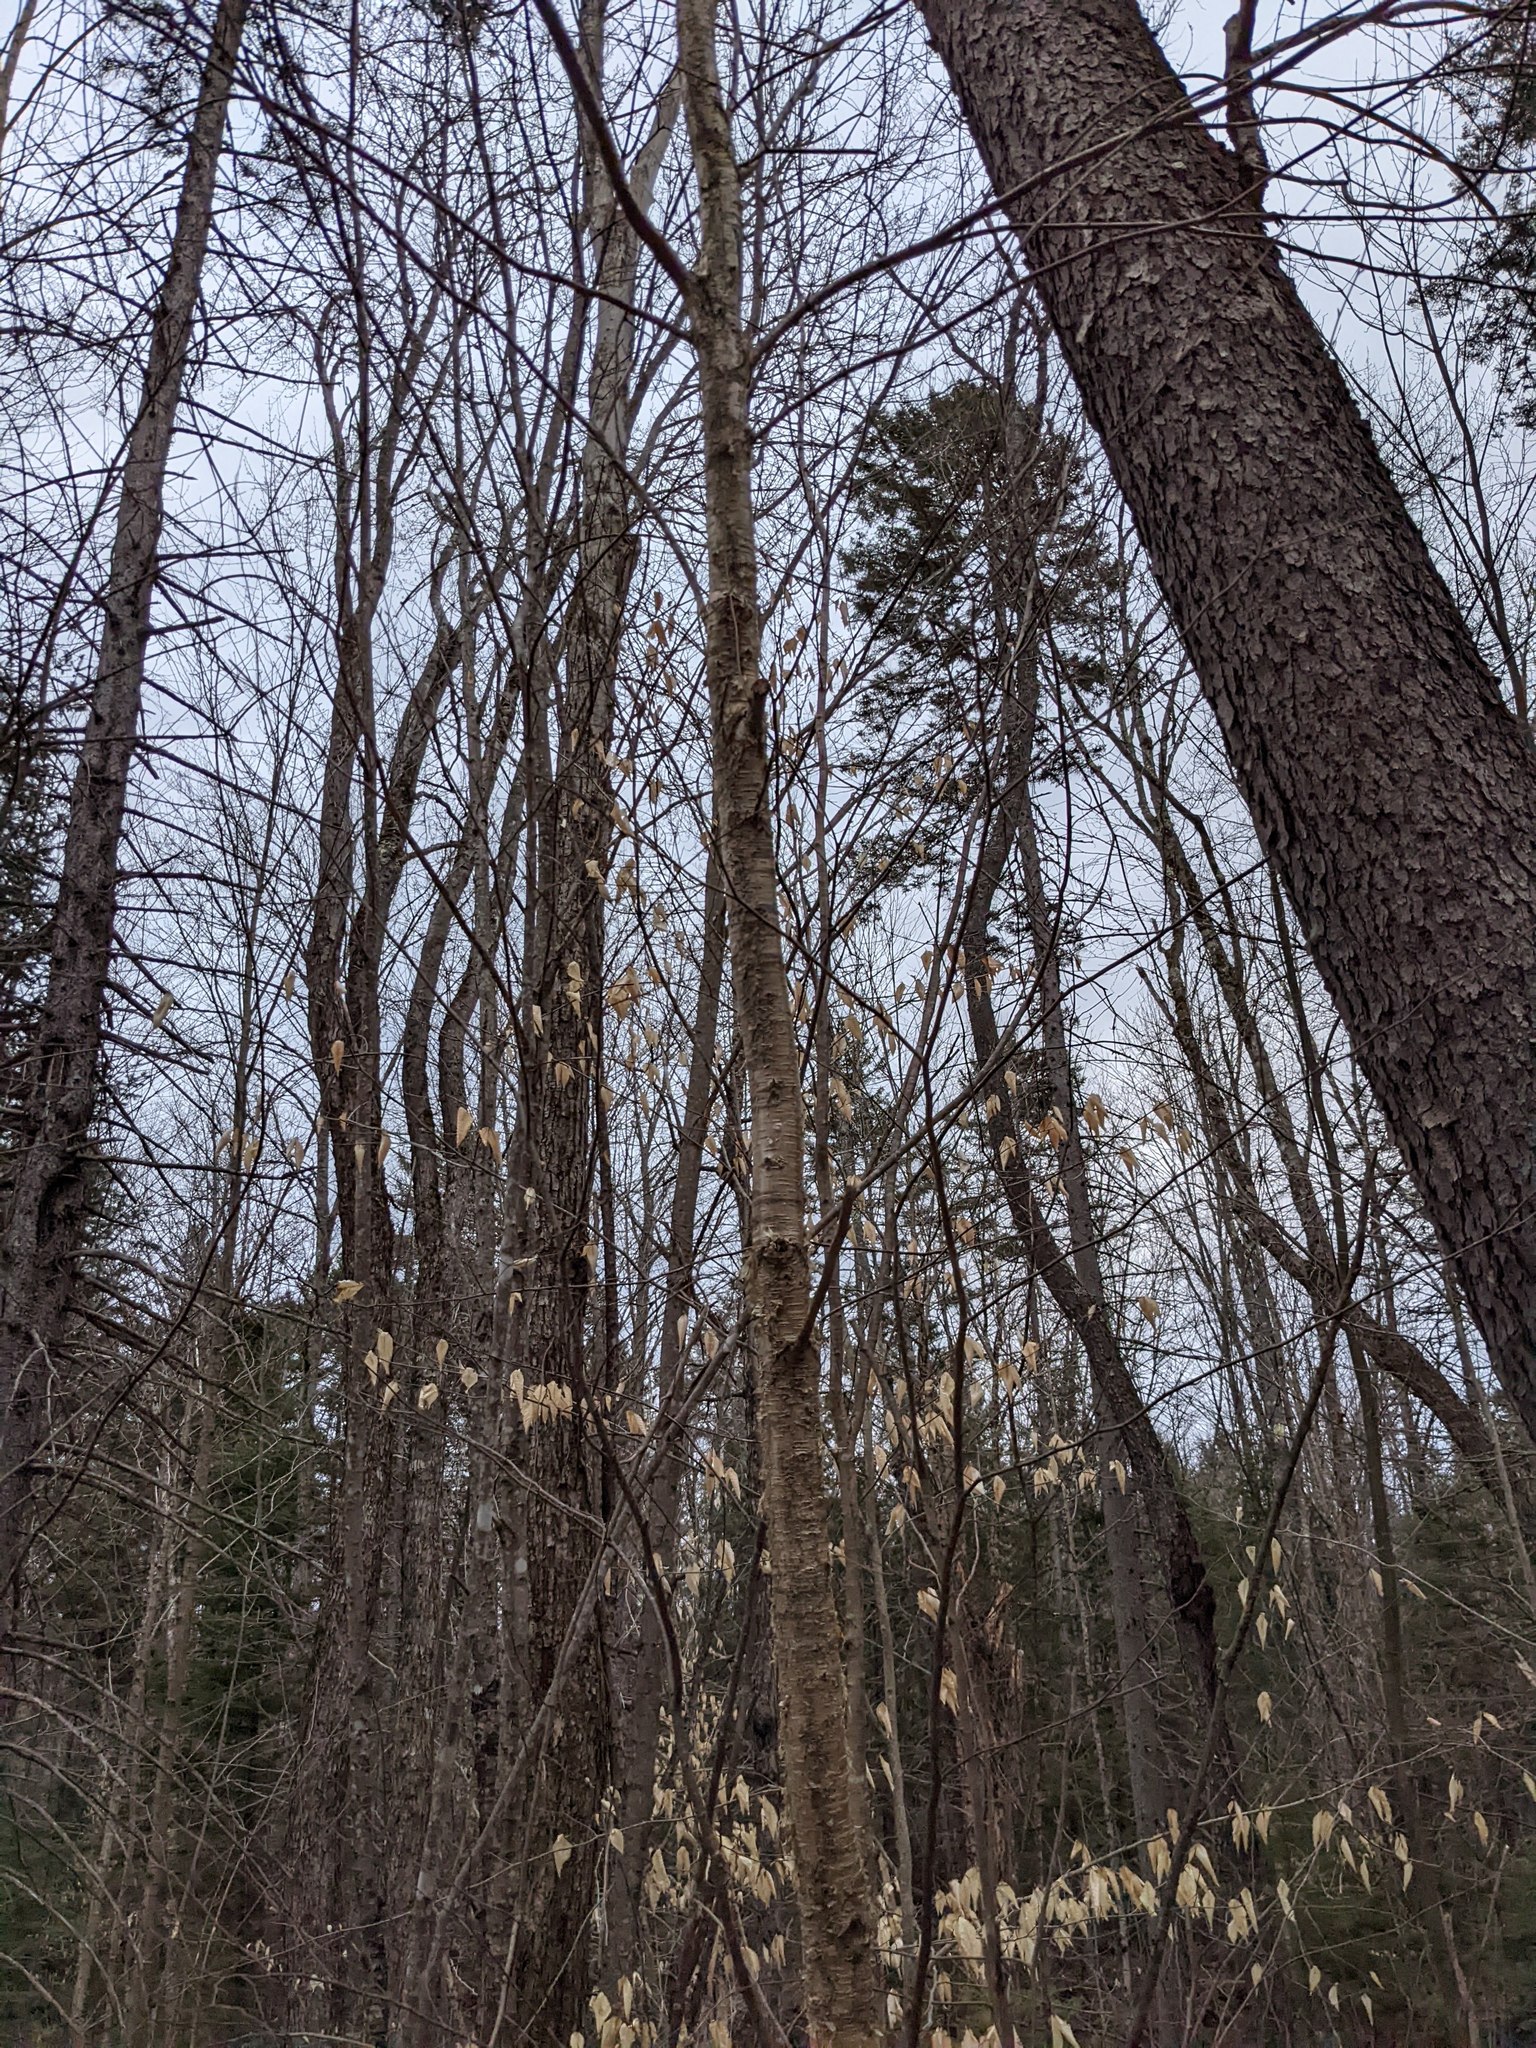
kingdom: Plantae
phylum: Tracheophyta
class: Magnoliopsida
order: Fagales
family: Betulaceae
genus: Betula
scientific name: Betula alleghaniensis
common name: Yellow birch
